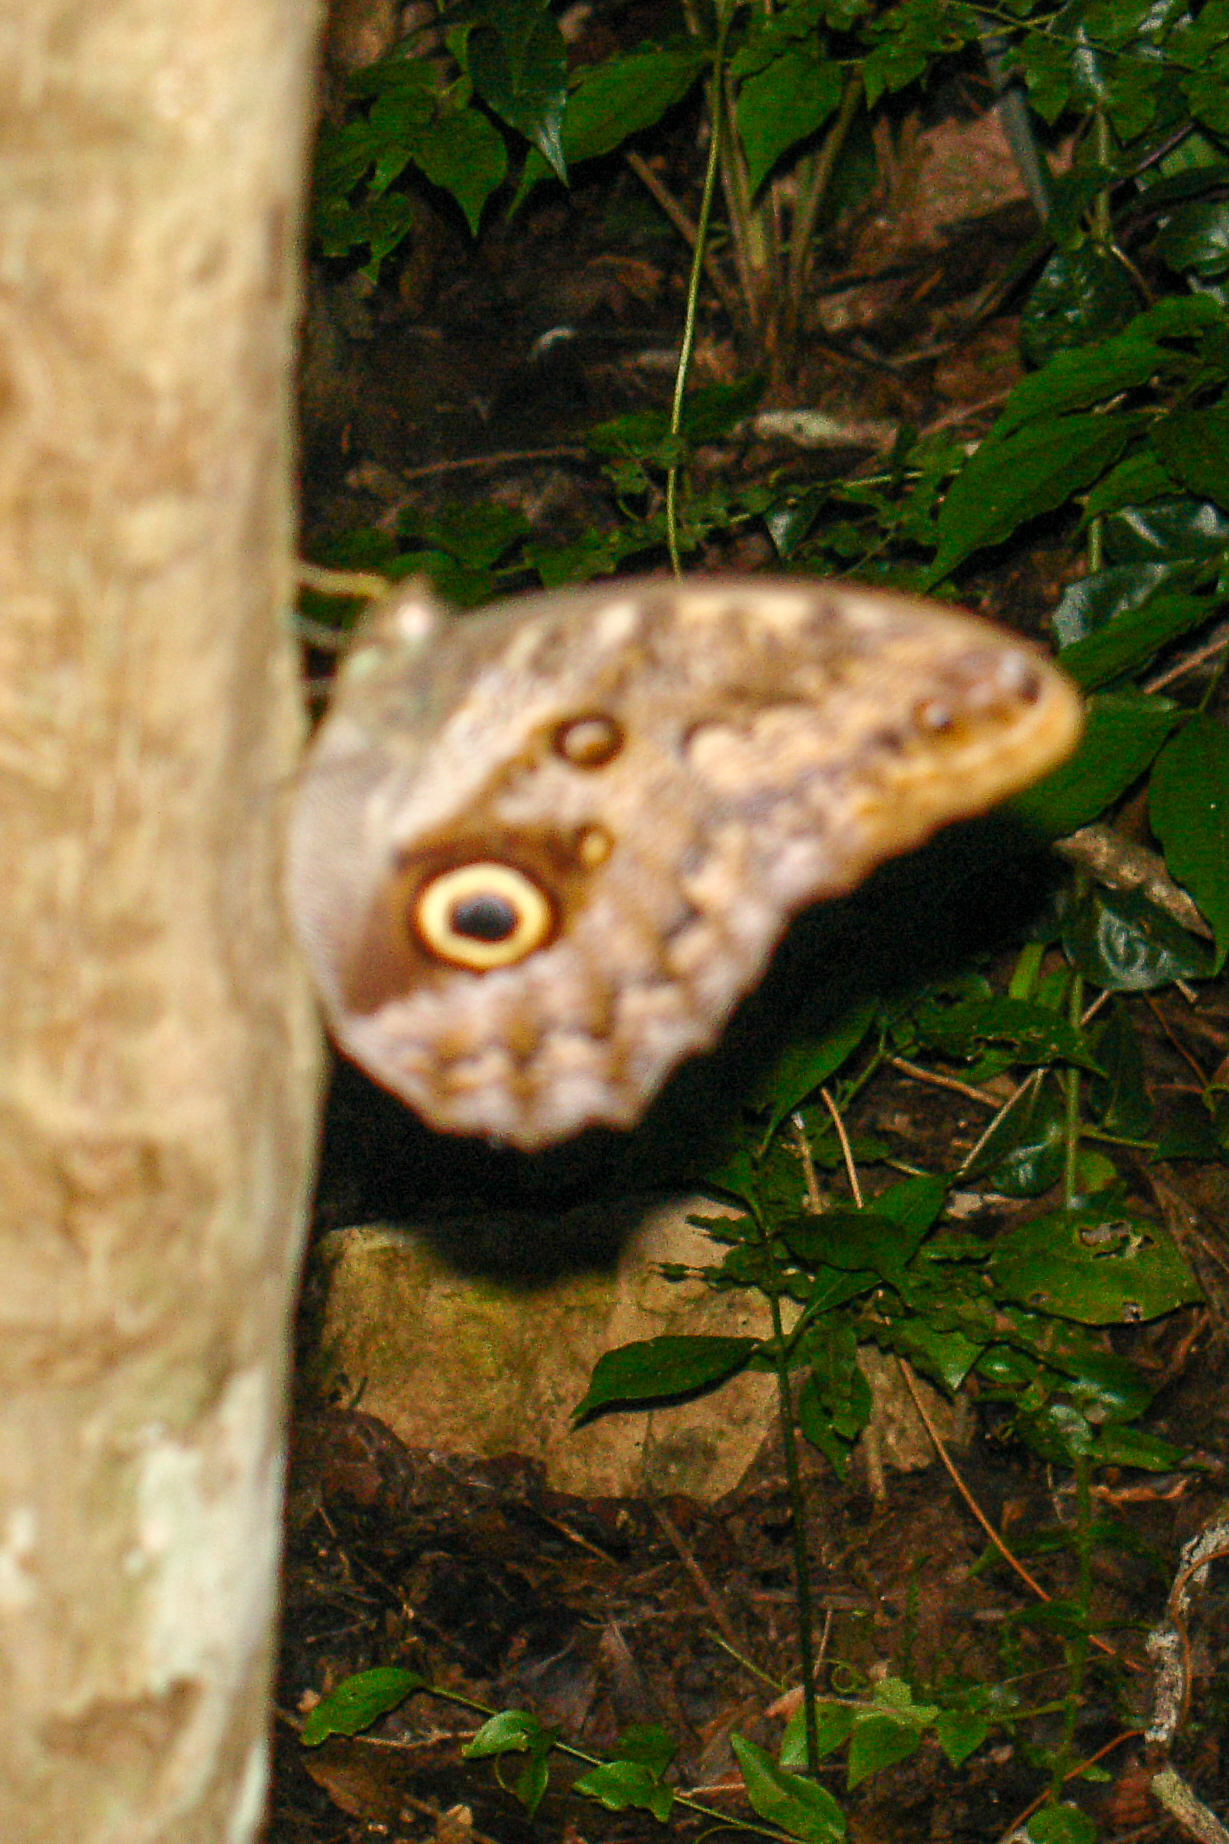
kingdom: Animalia
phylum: Arthropoda
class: Insecta
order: Lepidoptera
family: Nymphalidae
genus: Caligo
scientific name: Caligo brasiliensis
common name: Dark owl-butterfly
